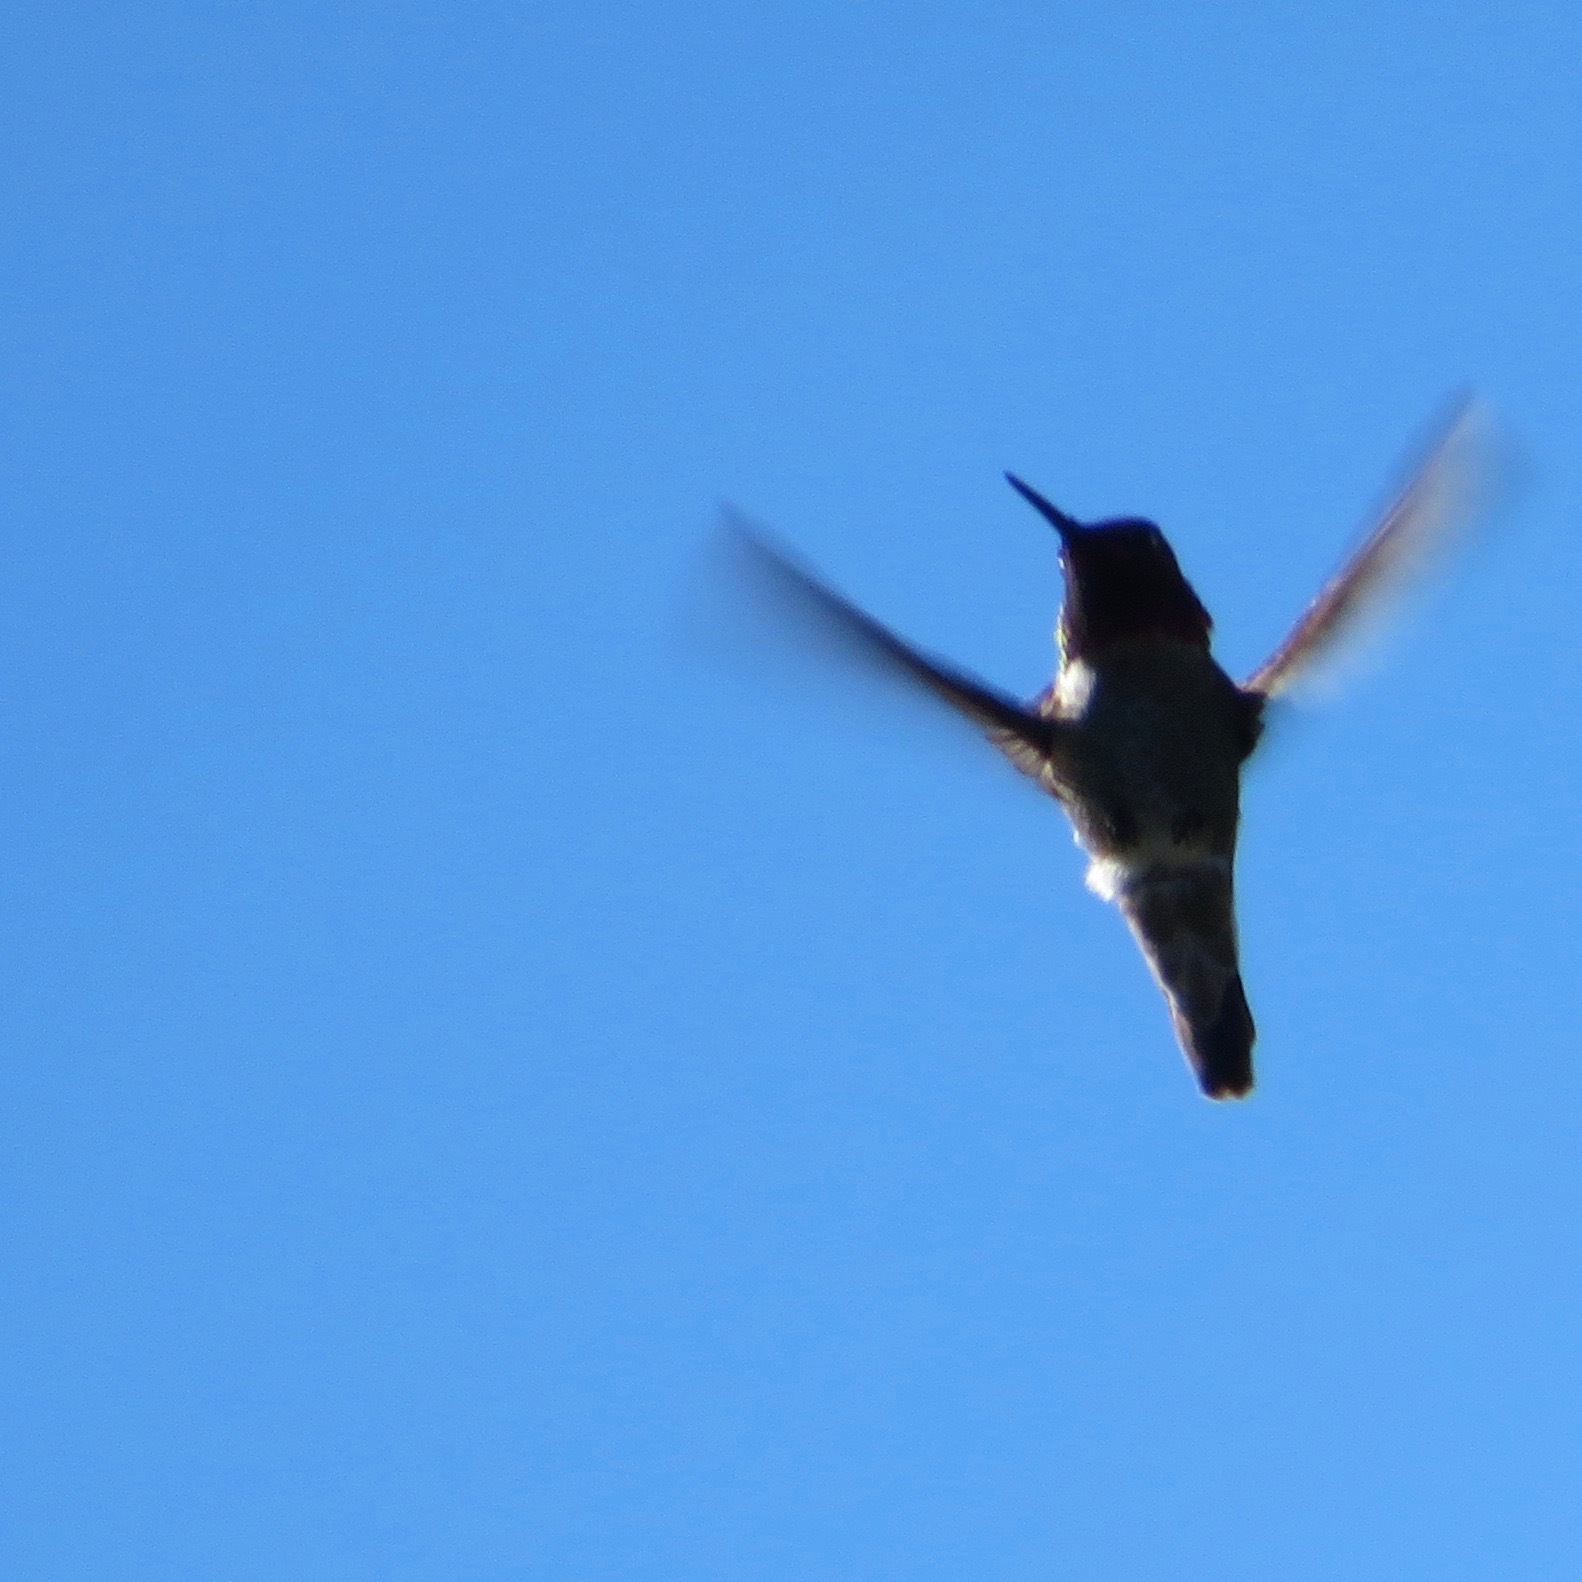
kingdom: Animalia
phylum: Chordata
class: Aves
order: Apodiformes
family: Trochilidae
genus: Calypte
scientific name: Calypte anna
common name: Anna's hummingbird
